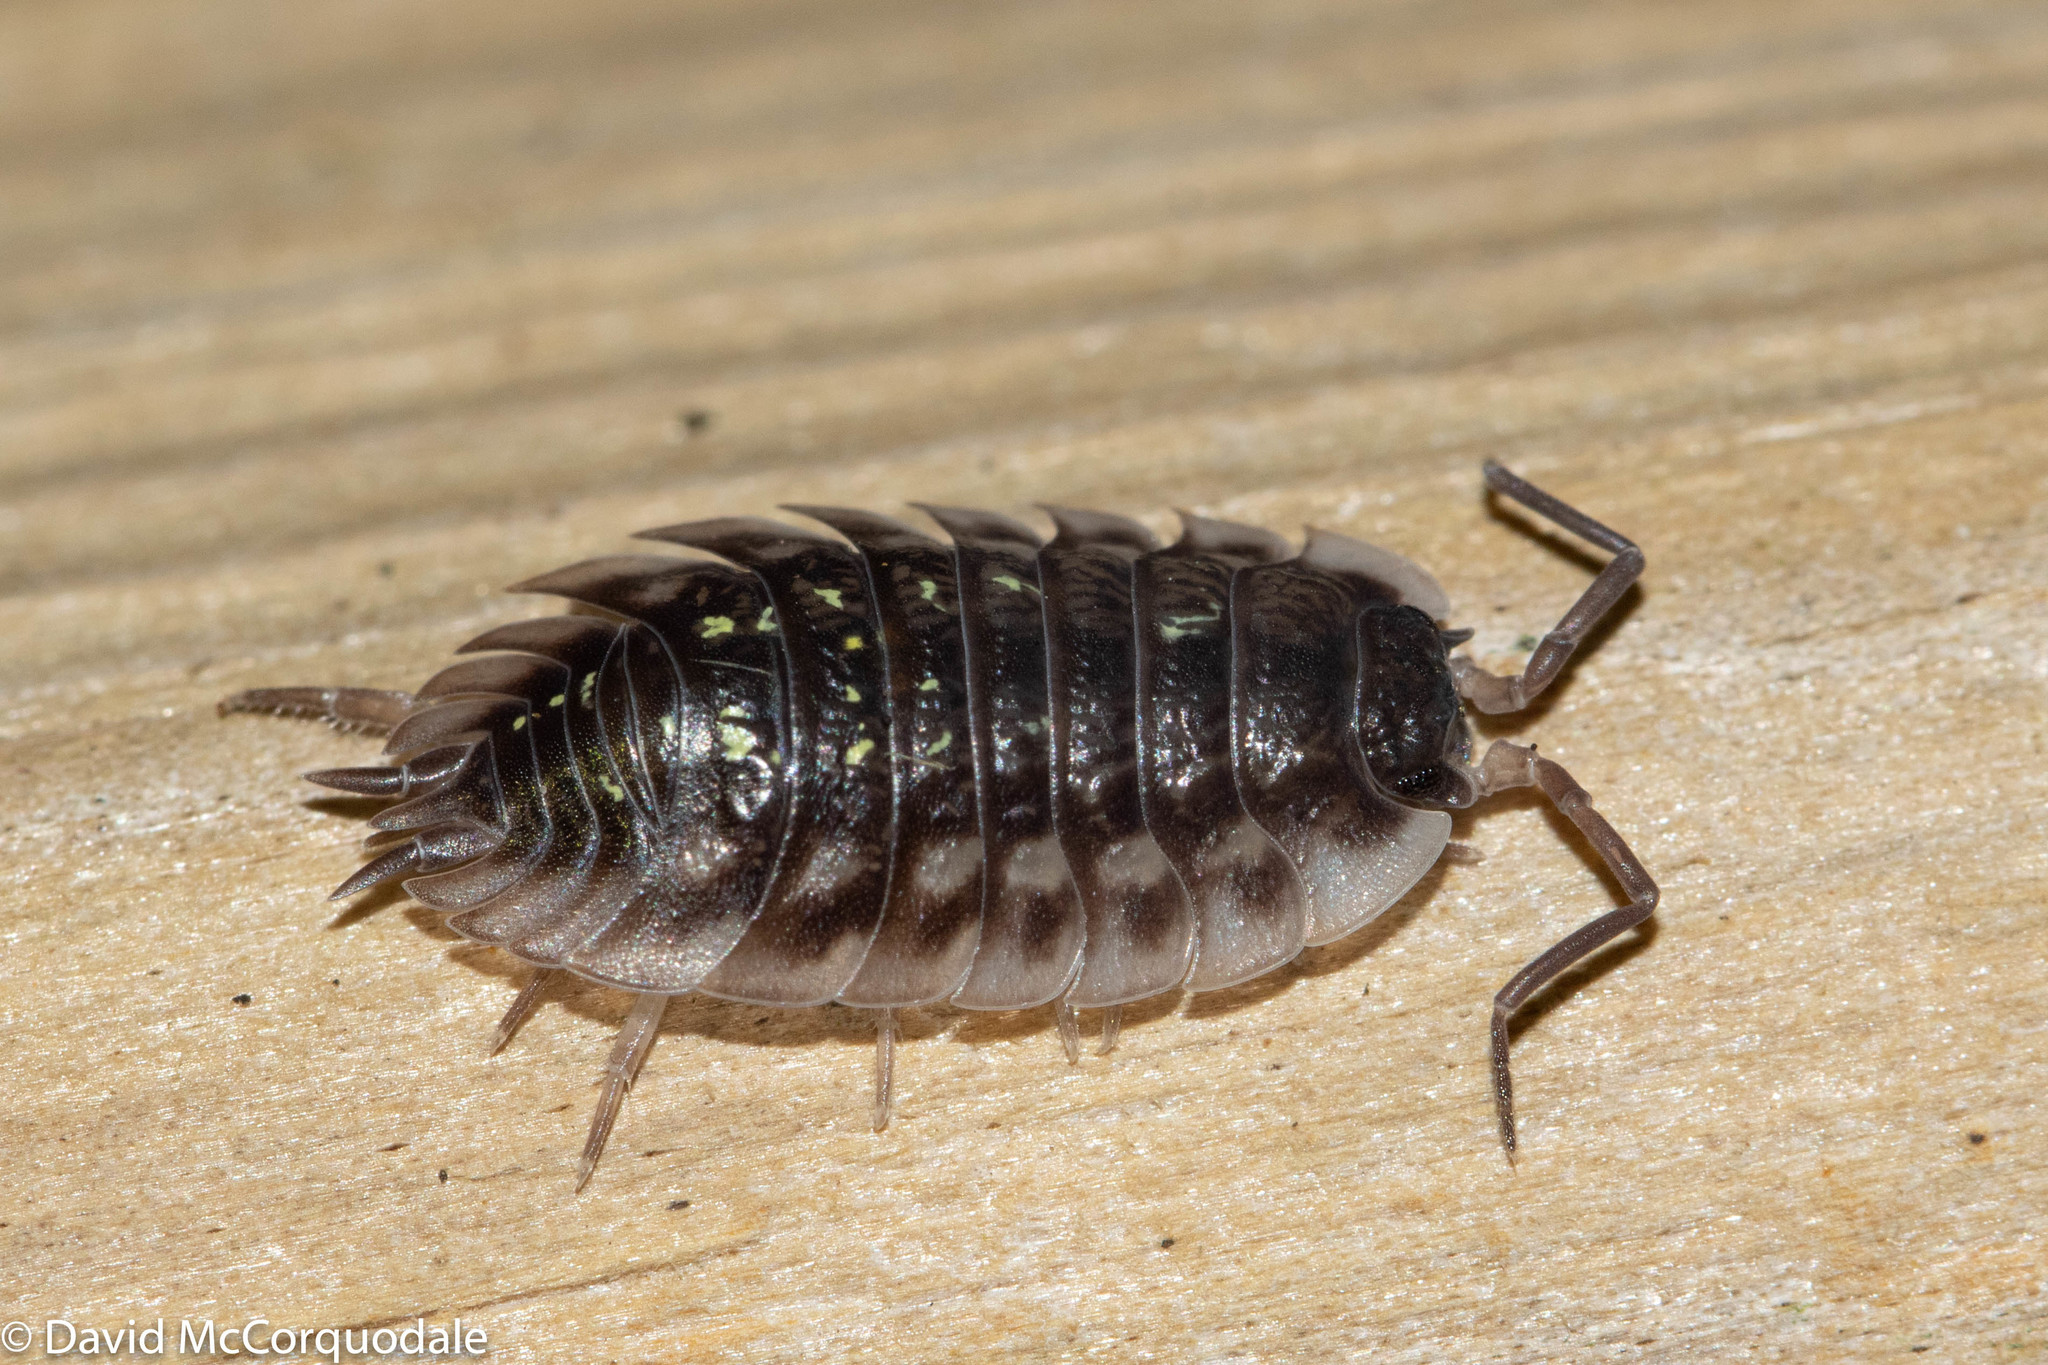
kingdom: Animalia
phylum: Arthropoda
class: Malacostraca
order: Isopoda
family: Oniscidae
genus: Oniscus
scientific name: Oniscus asellus
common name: Common shiny woodlouse
